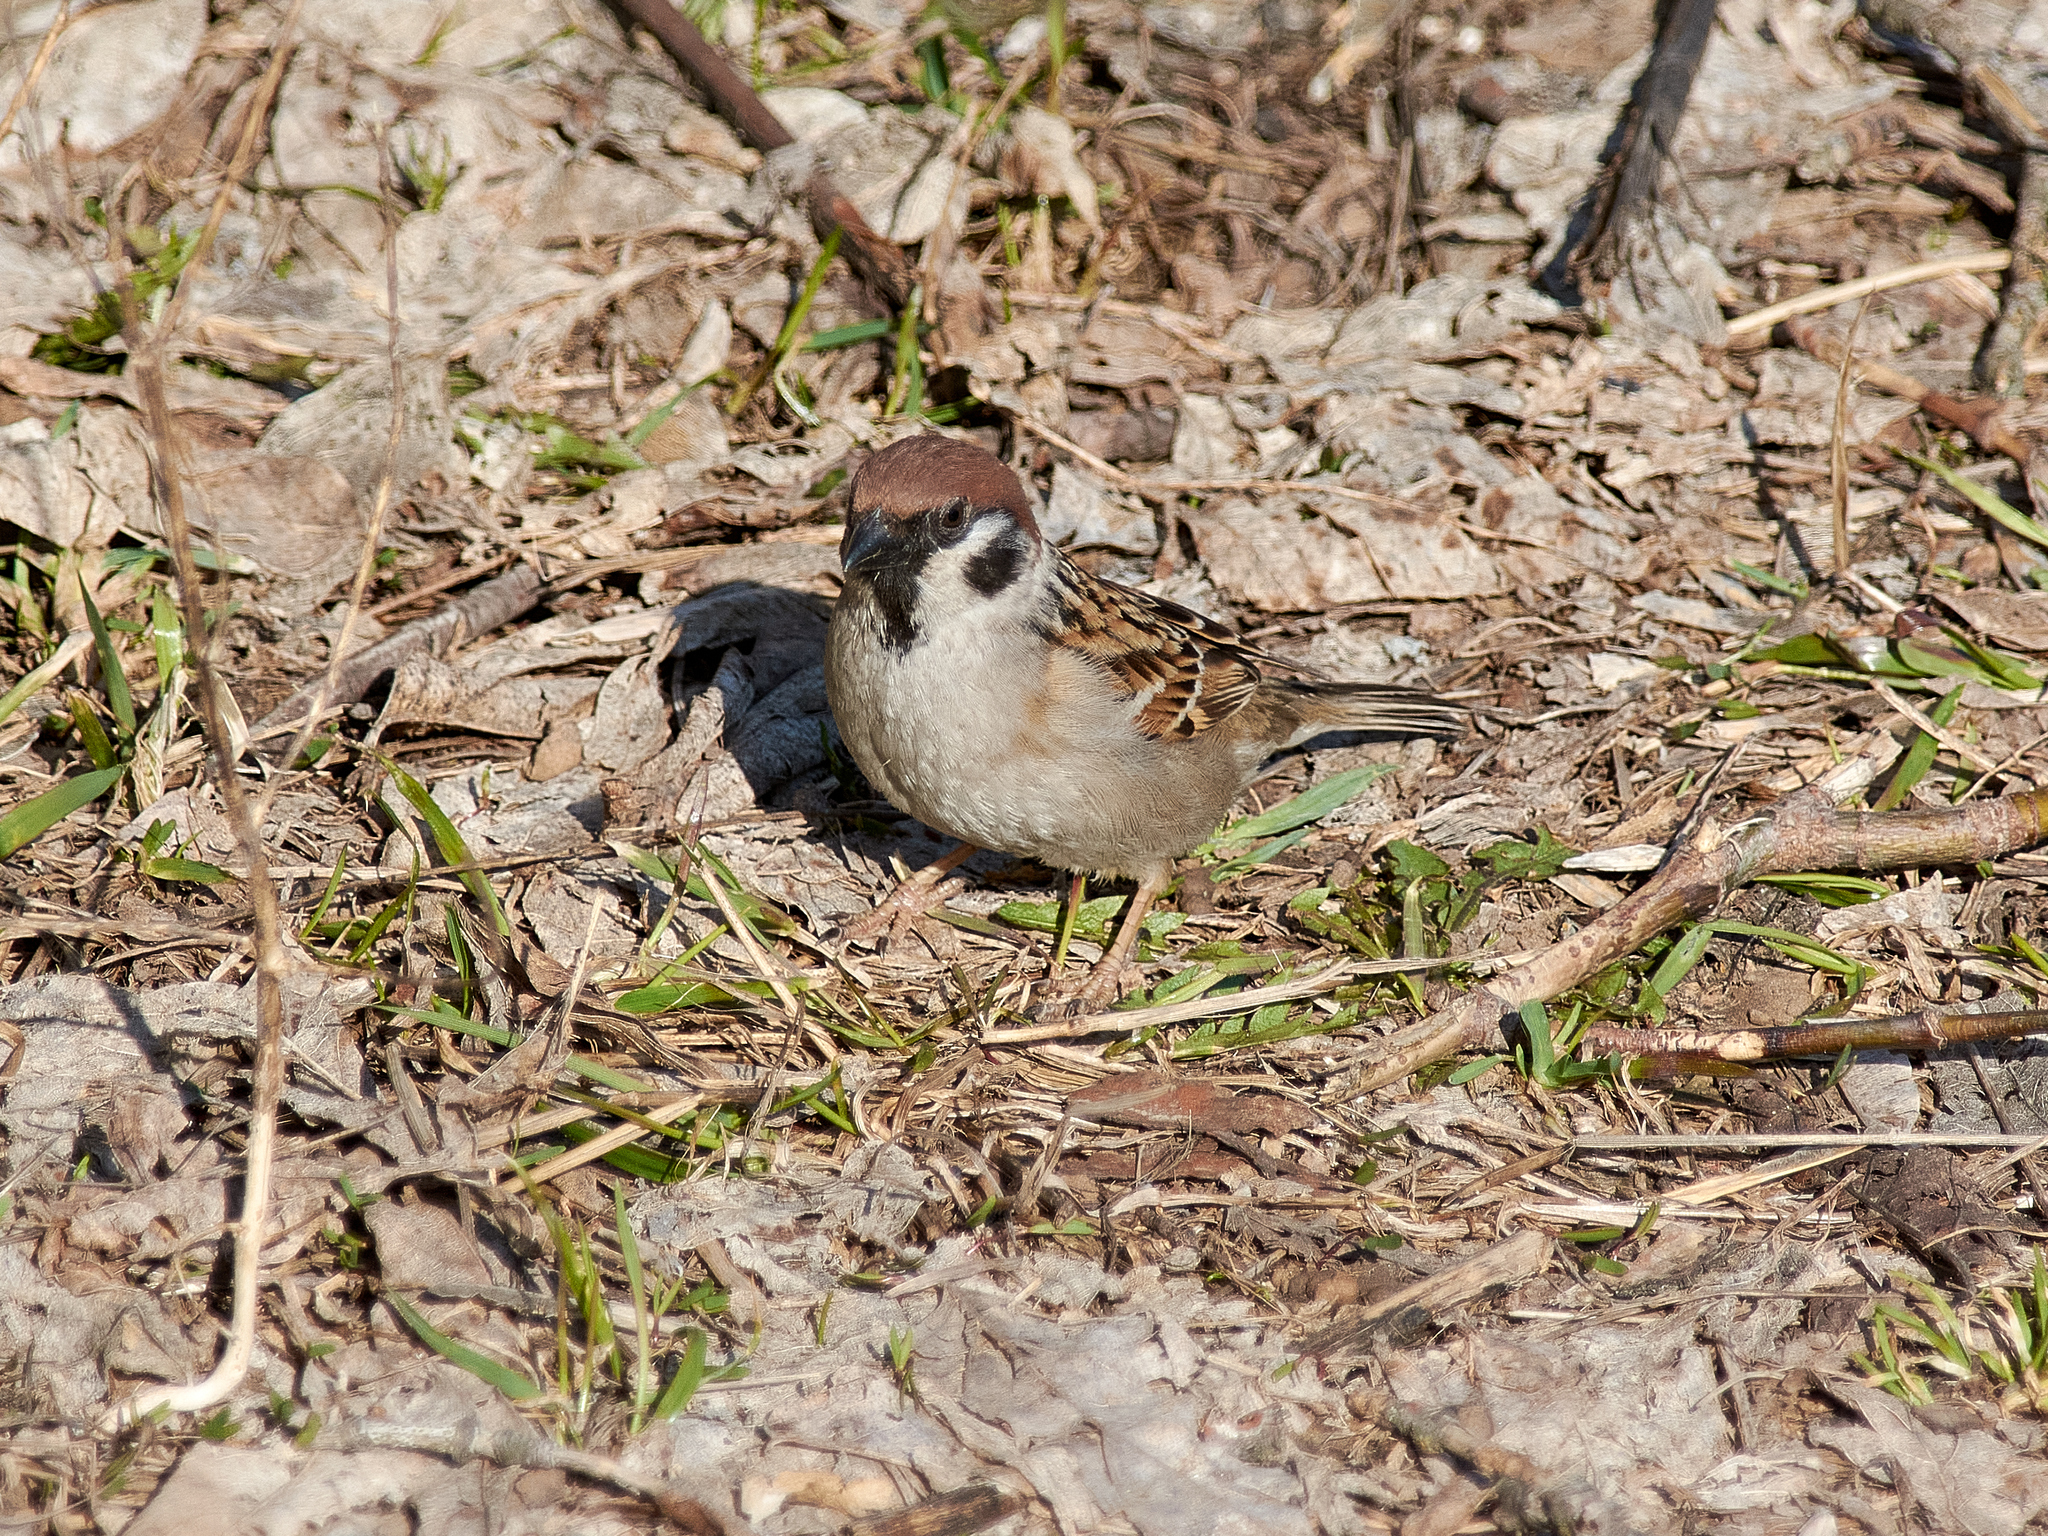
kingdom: Animalia
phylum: Chordata
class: Aves
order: Passeriformes
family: Passeridae
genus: Passer
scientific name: Passer montanus
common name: Eurasian tree sparrow
